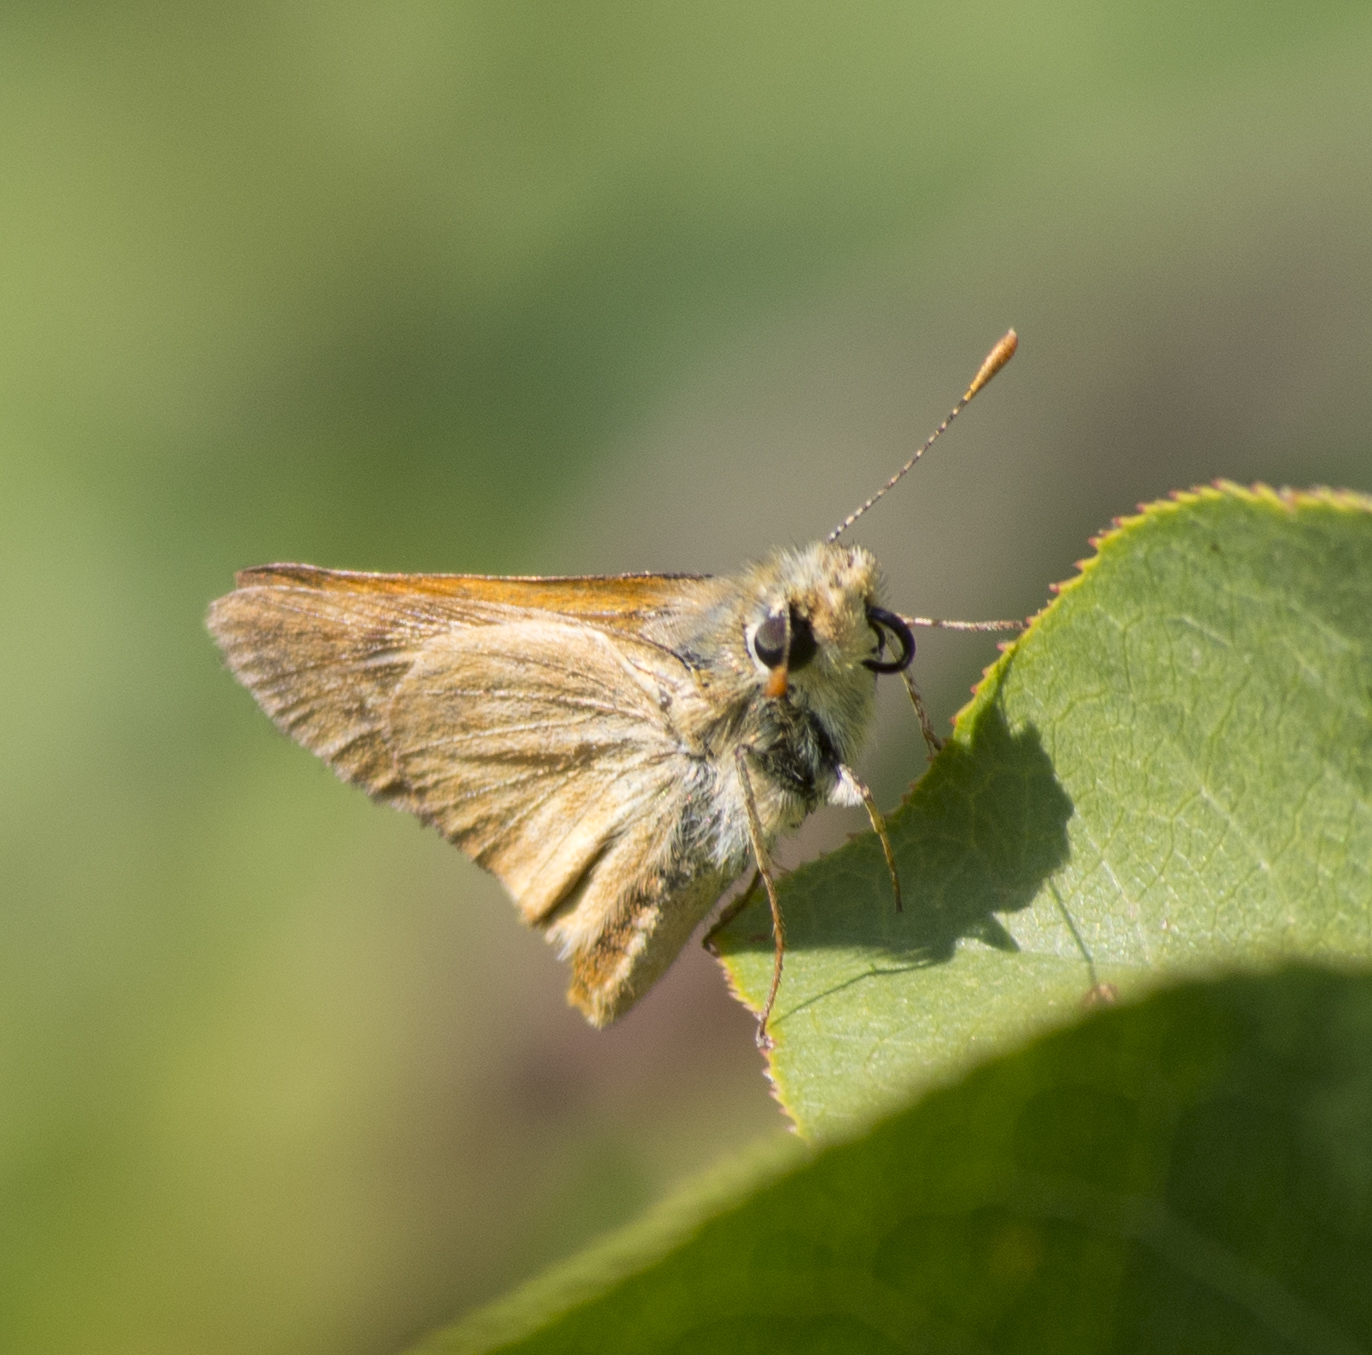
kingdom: Animalia
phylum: Arthropoda
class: Insecta
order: Lepidoptera
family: Hesperiidae
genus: Ochlodes
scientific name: Ochlodes sylvanoides
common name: Woodland skipper
